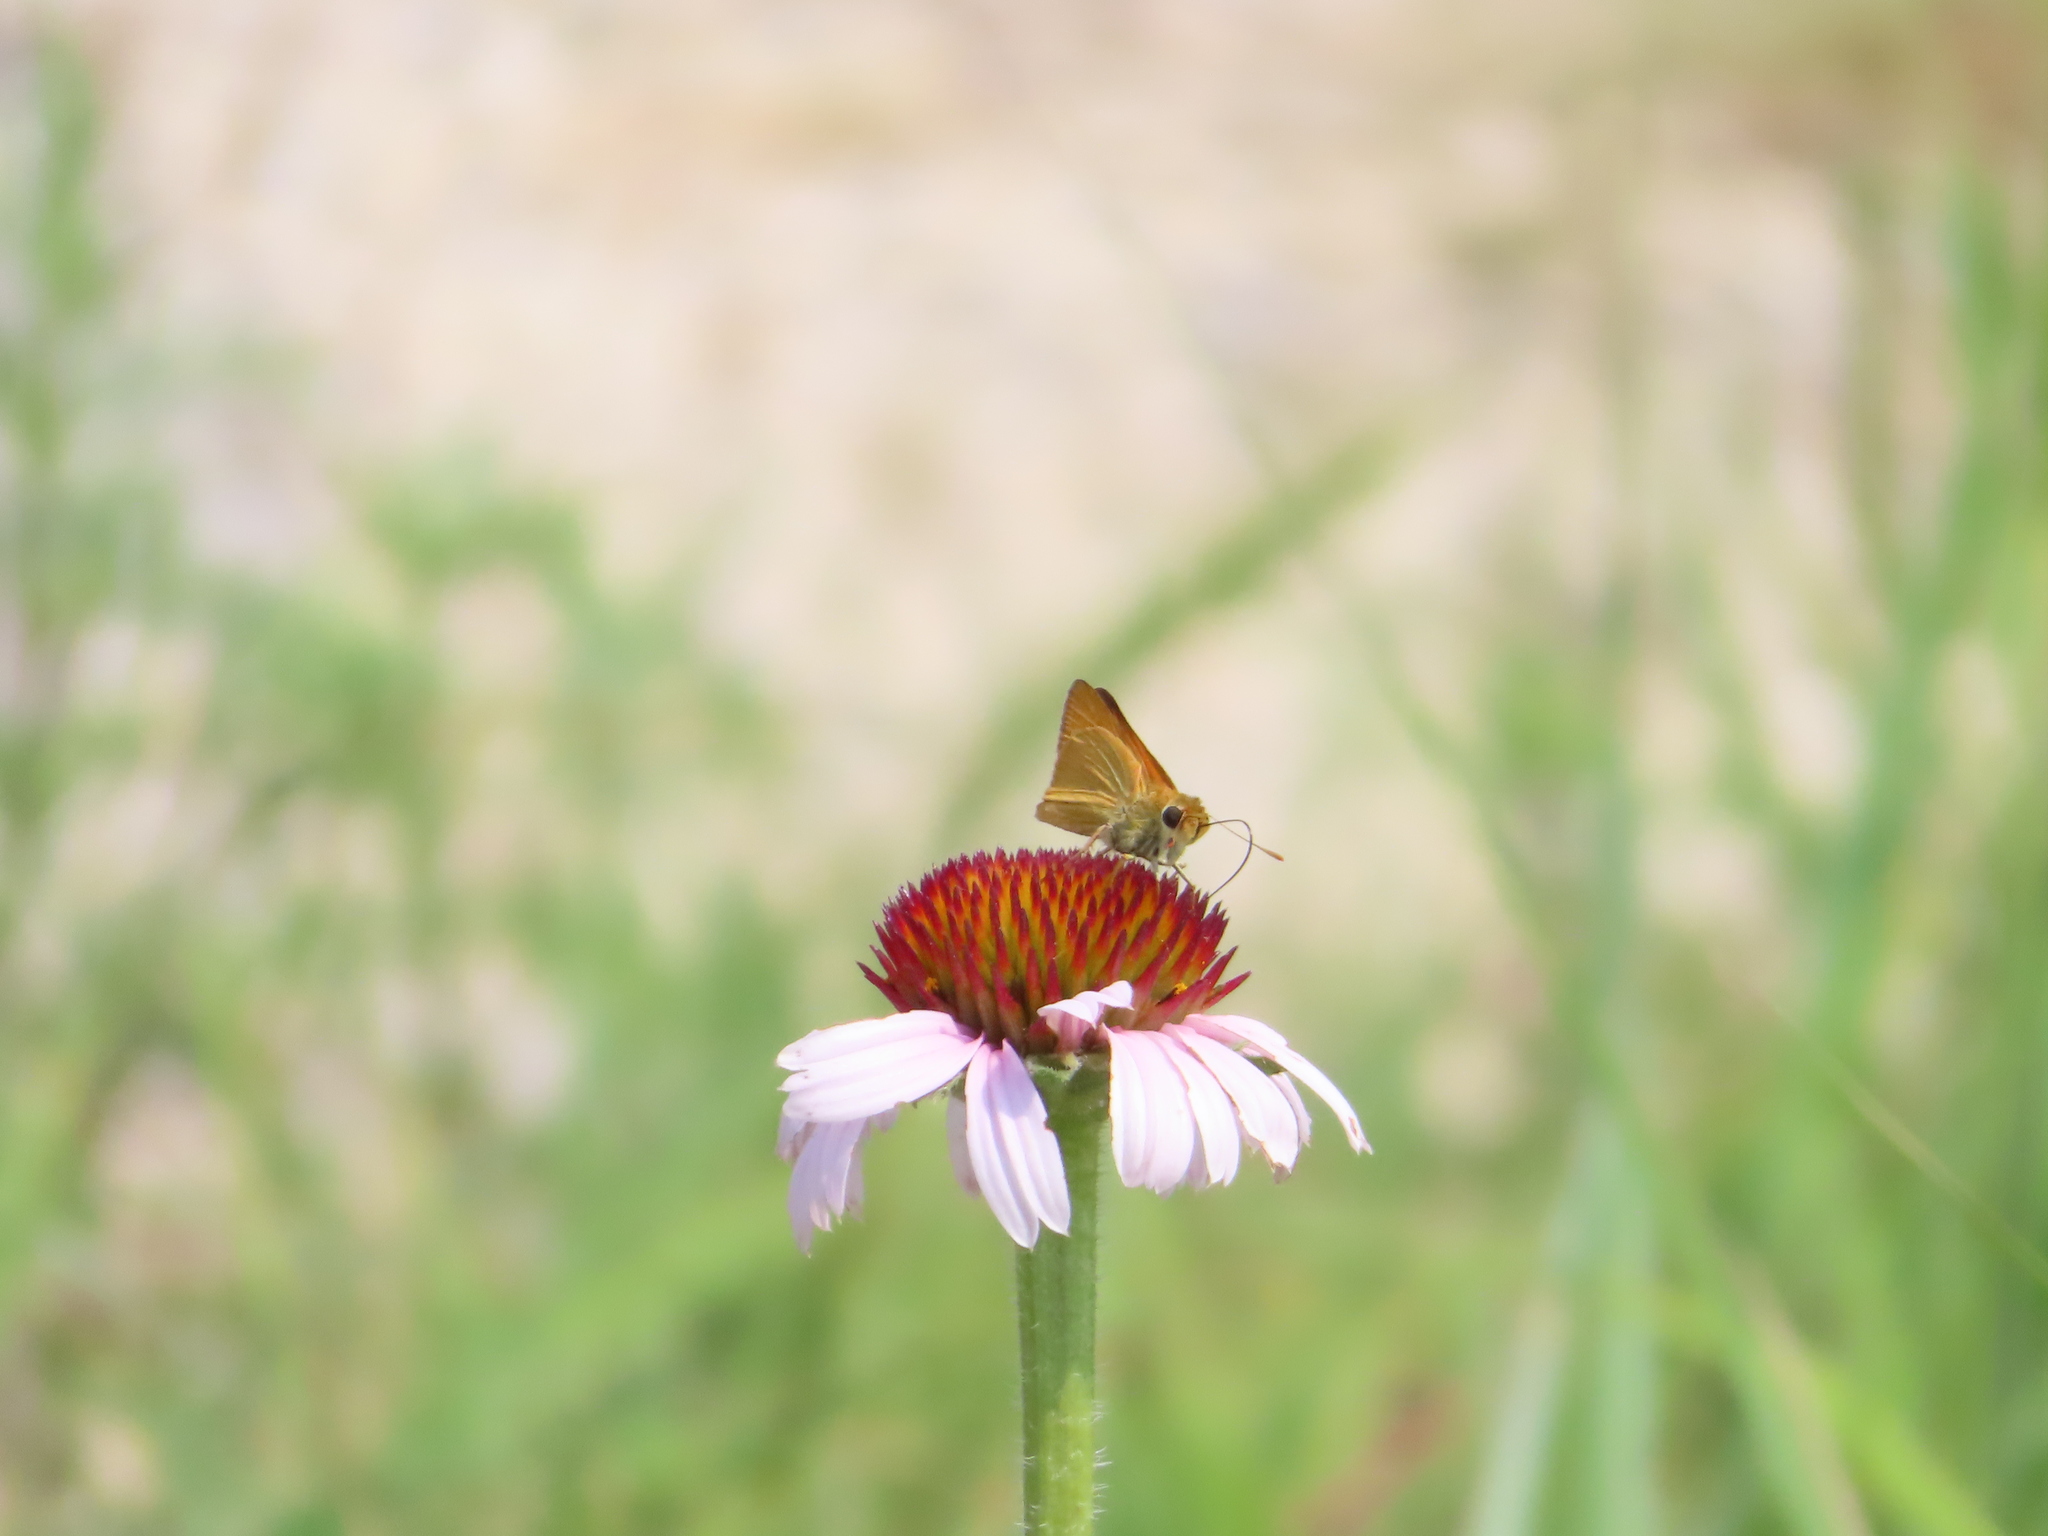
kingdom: Animalia
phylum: Arthropoda
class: Insecta
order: Lepidoptera
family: Hesperiidae
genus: Atrytone
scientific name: Atrytone delaware
